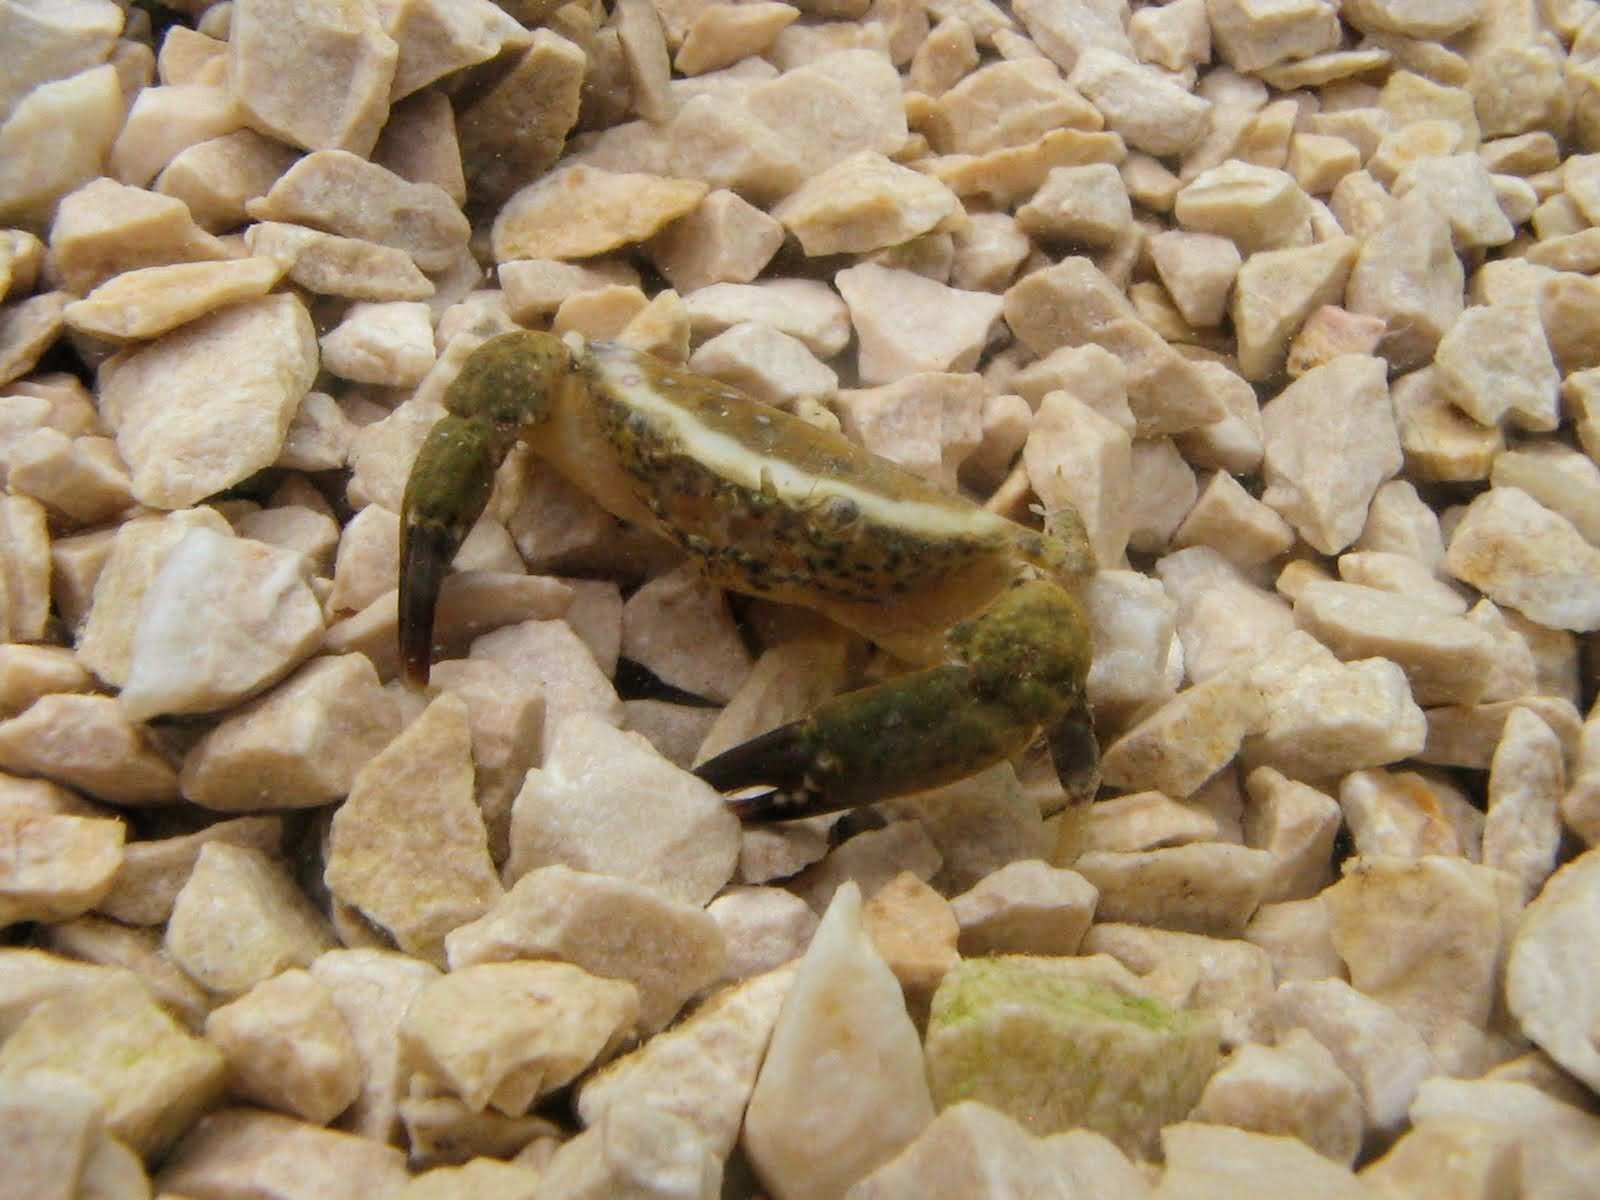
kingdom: Animalia
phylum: Arthropoda
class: Malacostraca
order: Decapoda
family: Xanthidae
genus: Xantho
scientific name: Xantho poressa
